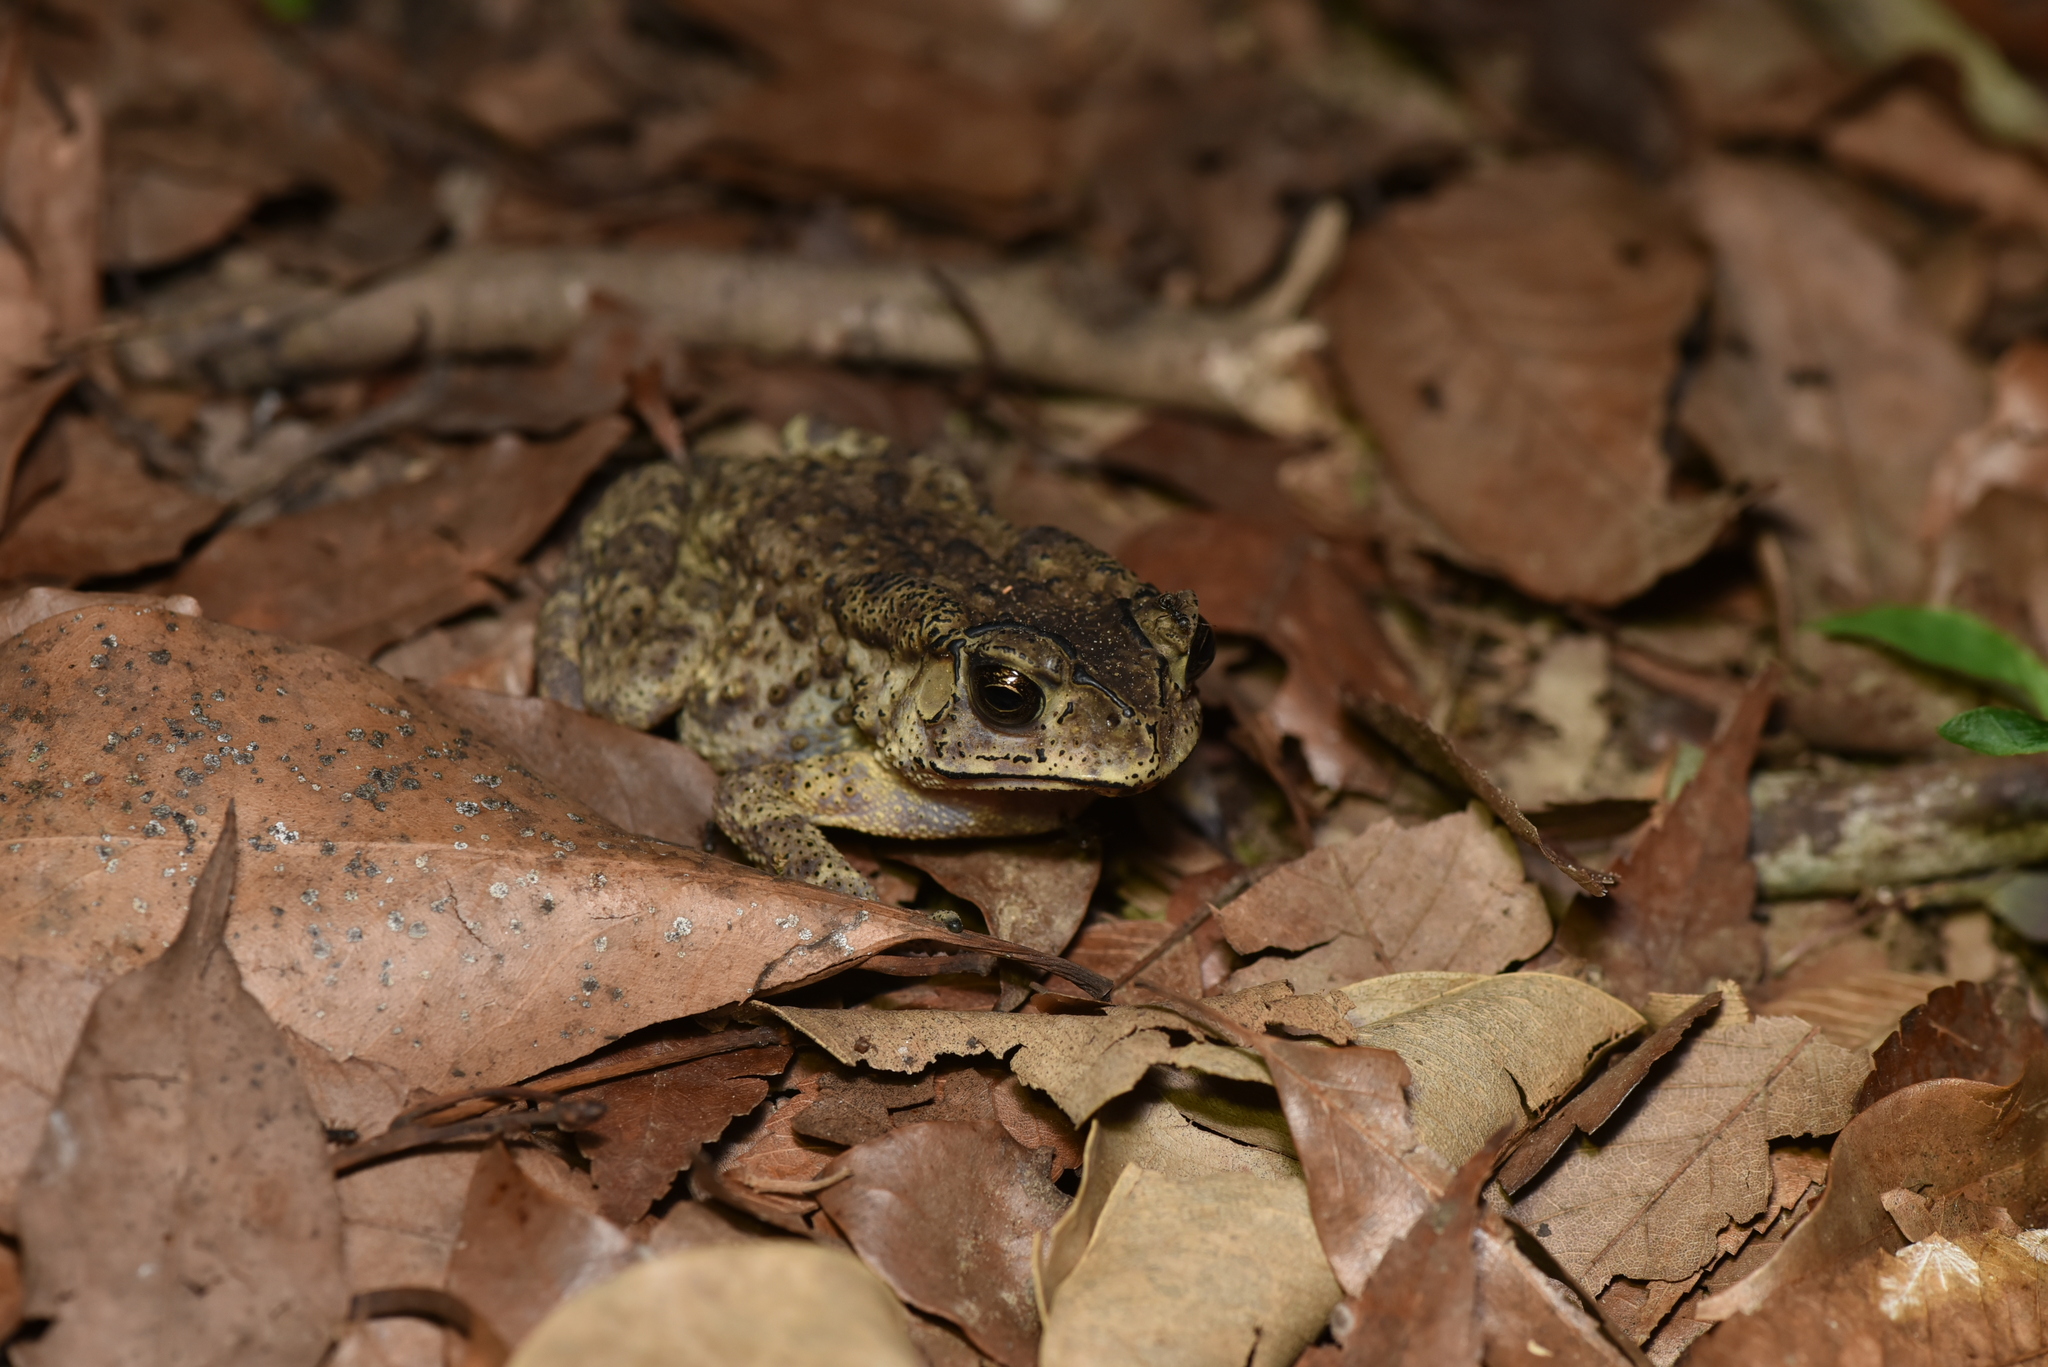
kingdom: Animalia
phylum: Chordata
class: Amphibia
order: Anura
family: Bufonidae
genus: Duttaphrynus
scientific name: Duttaphrynus melanostictus
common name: Common sunda toad
